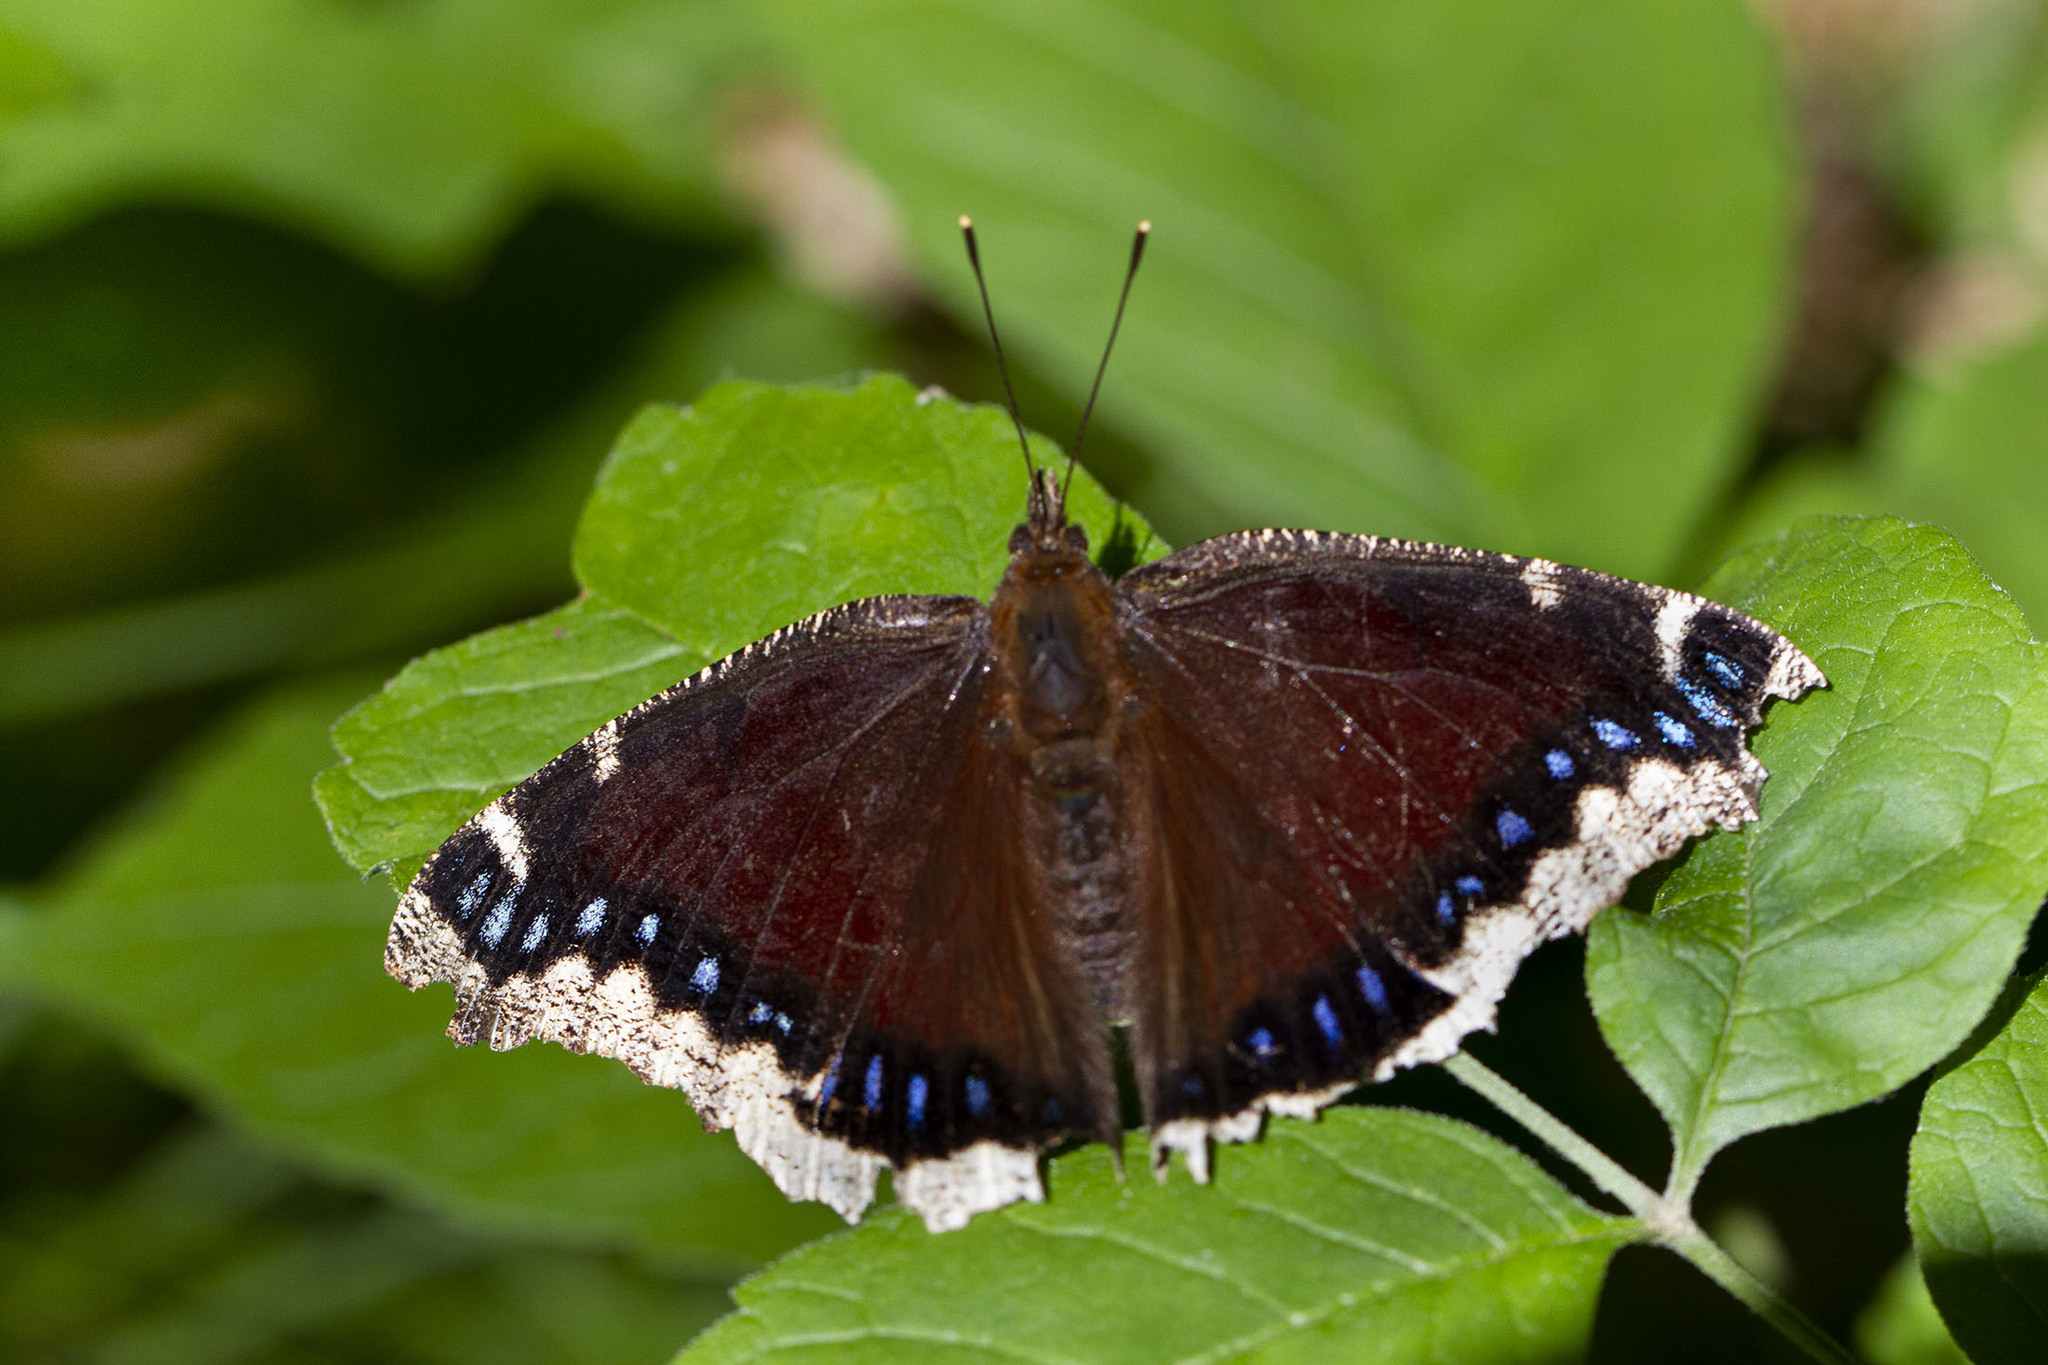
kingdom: Animalia
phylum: Arthropoda
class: Insecta
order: Lepidoptera
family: Nymphalidae
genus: Nymphalis
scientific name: Nymphalis antiopa
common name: Camberwell beauty
